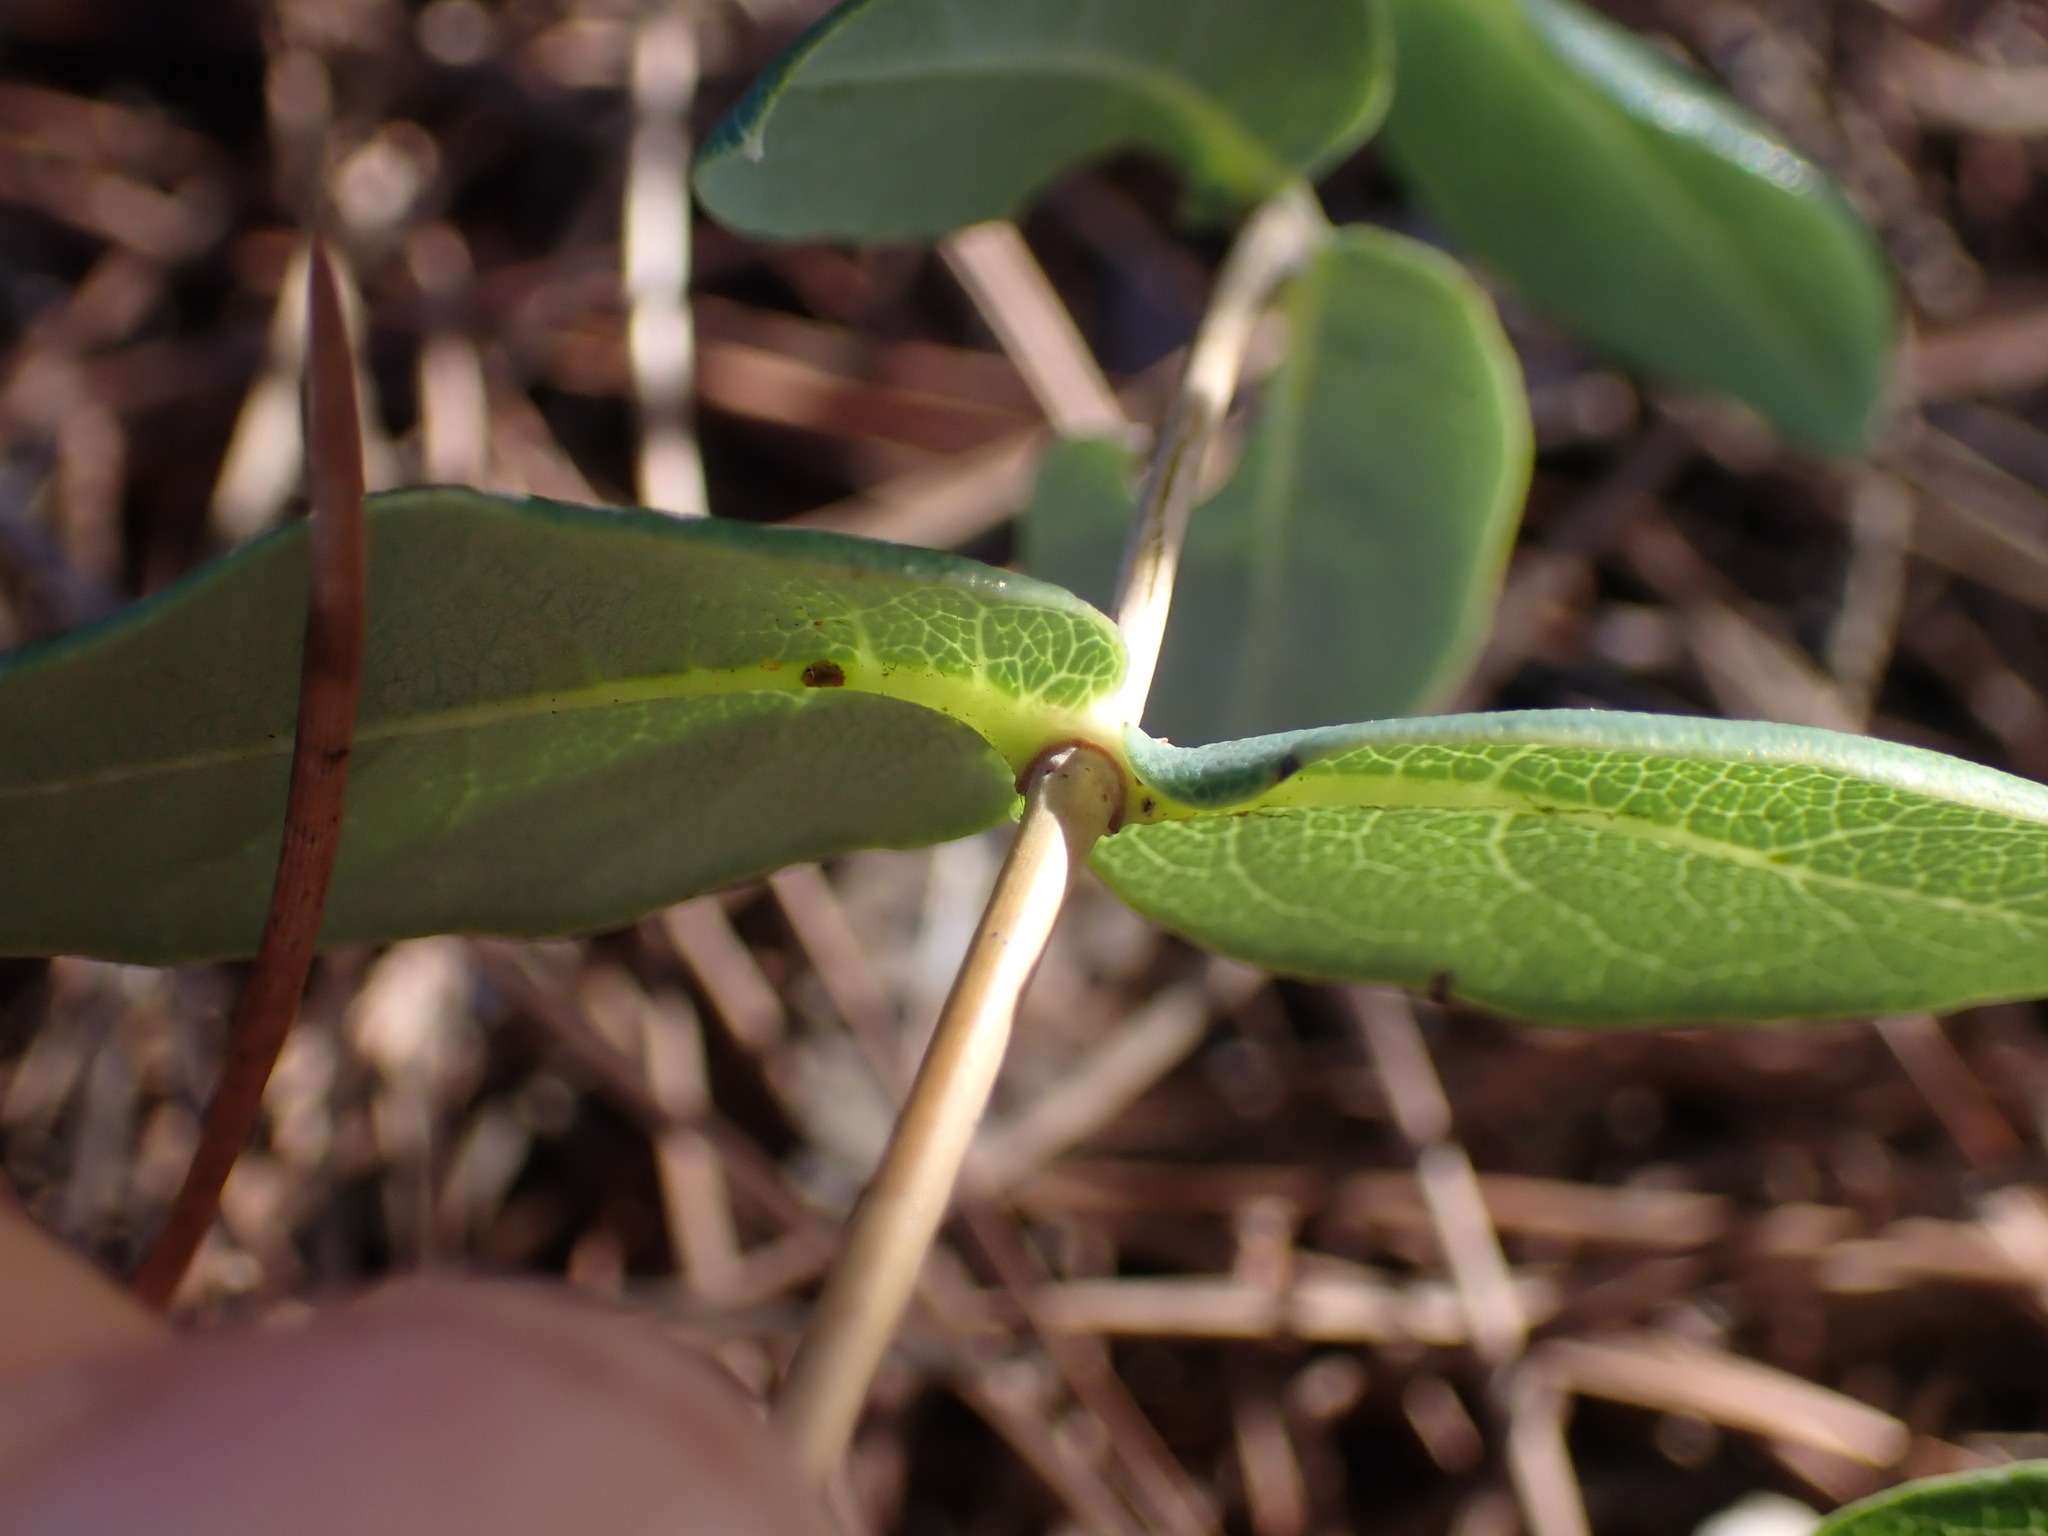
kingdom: Plantae
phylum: Tracheophyta
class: Magnoliopsida
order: Dipsacales
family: Caprifoliaceae
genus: Lonicera
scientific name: Lonicera implexa
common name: Minorca honeysuckle
